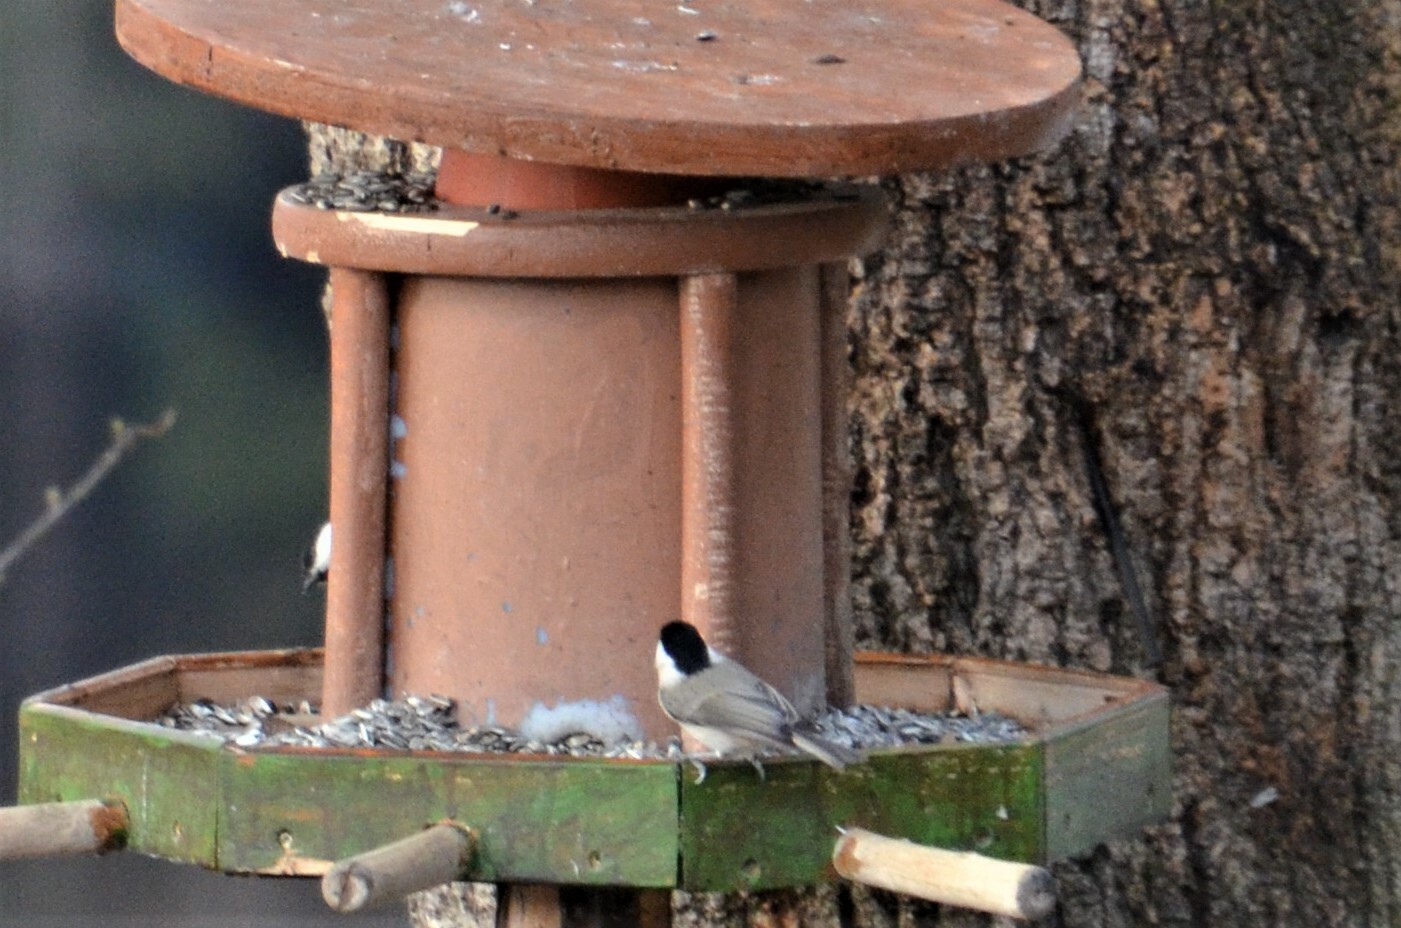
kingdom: Animalia
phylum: Chordata
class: Aves
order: Passeriformes
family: Paridae
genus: Poecile
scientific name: Poecile palustris
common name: Marsh tit
